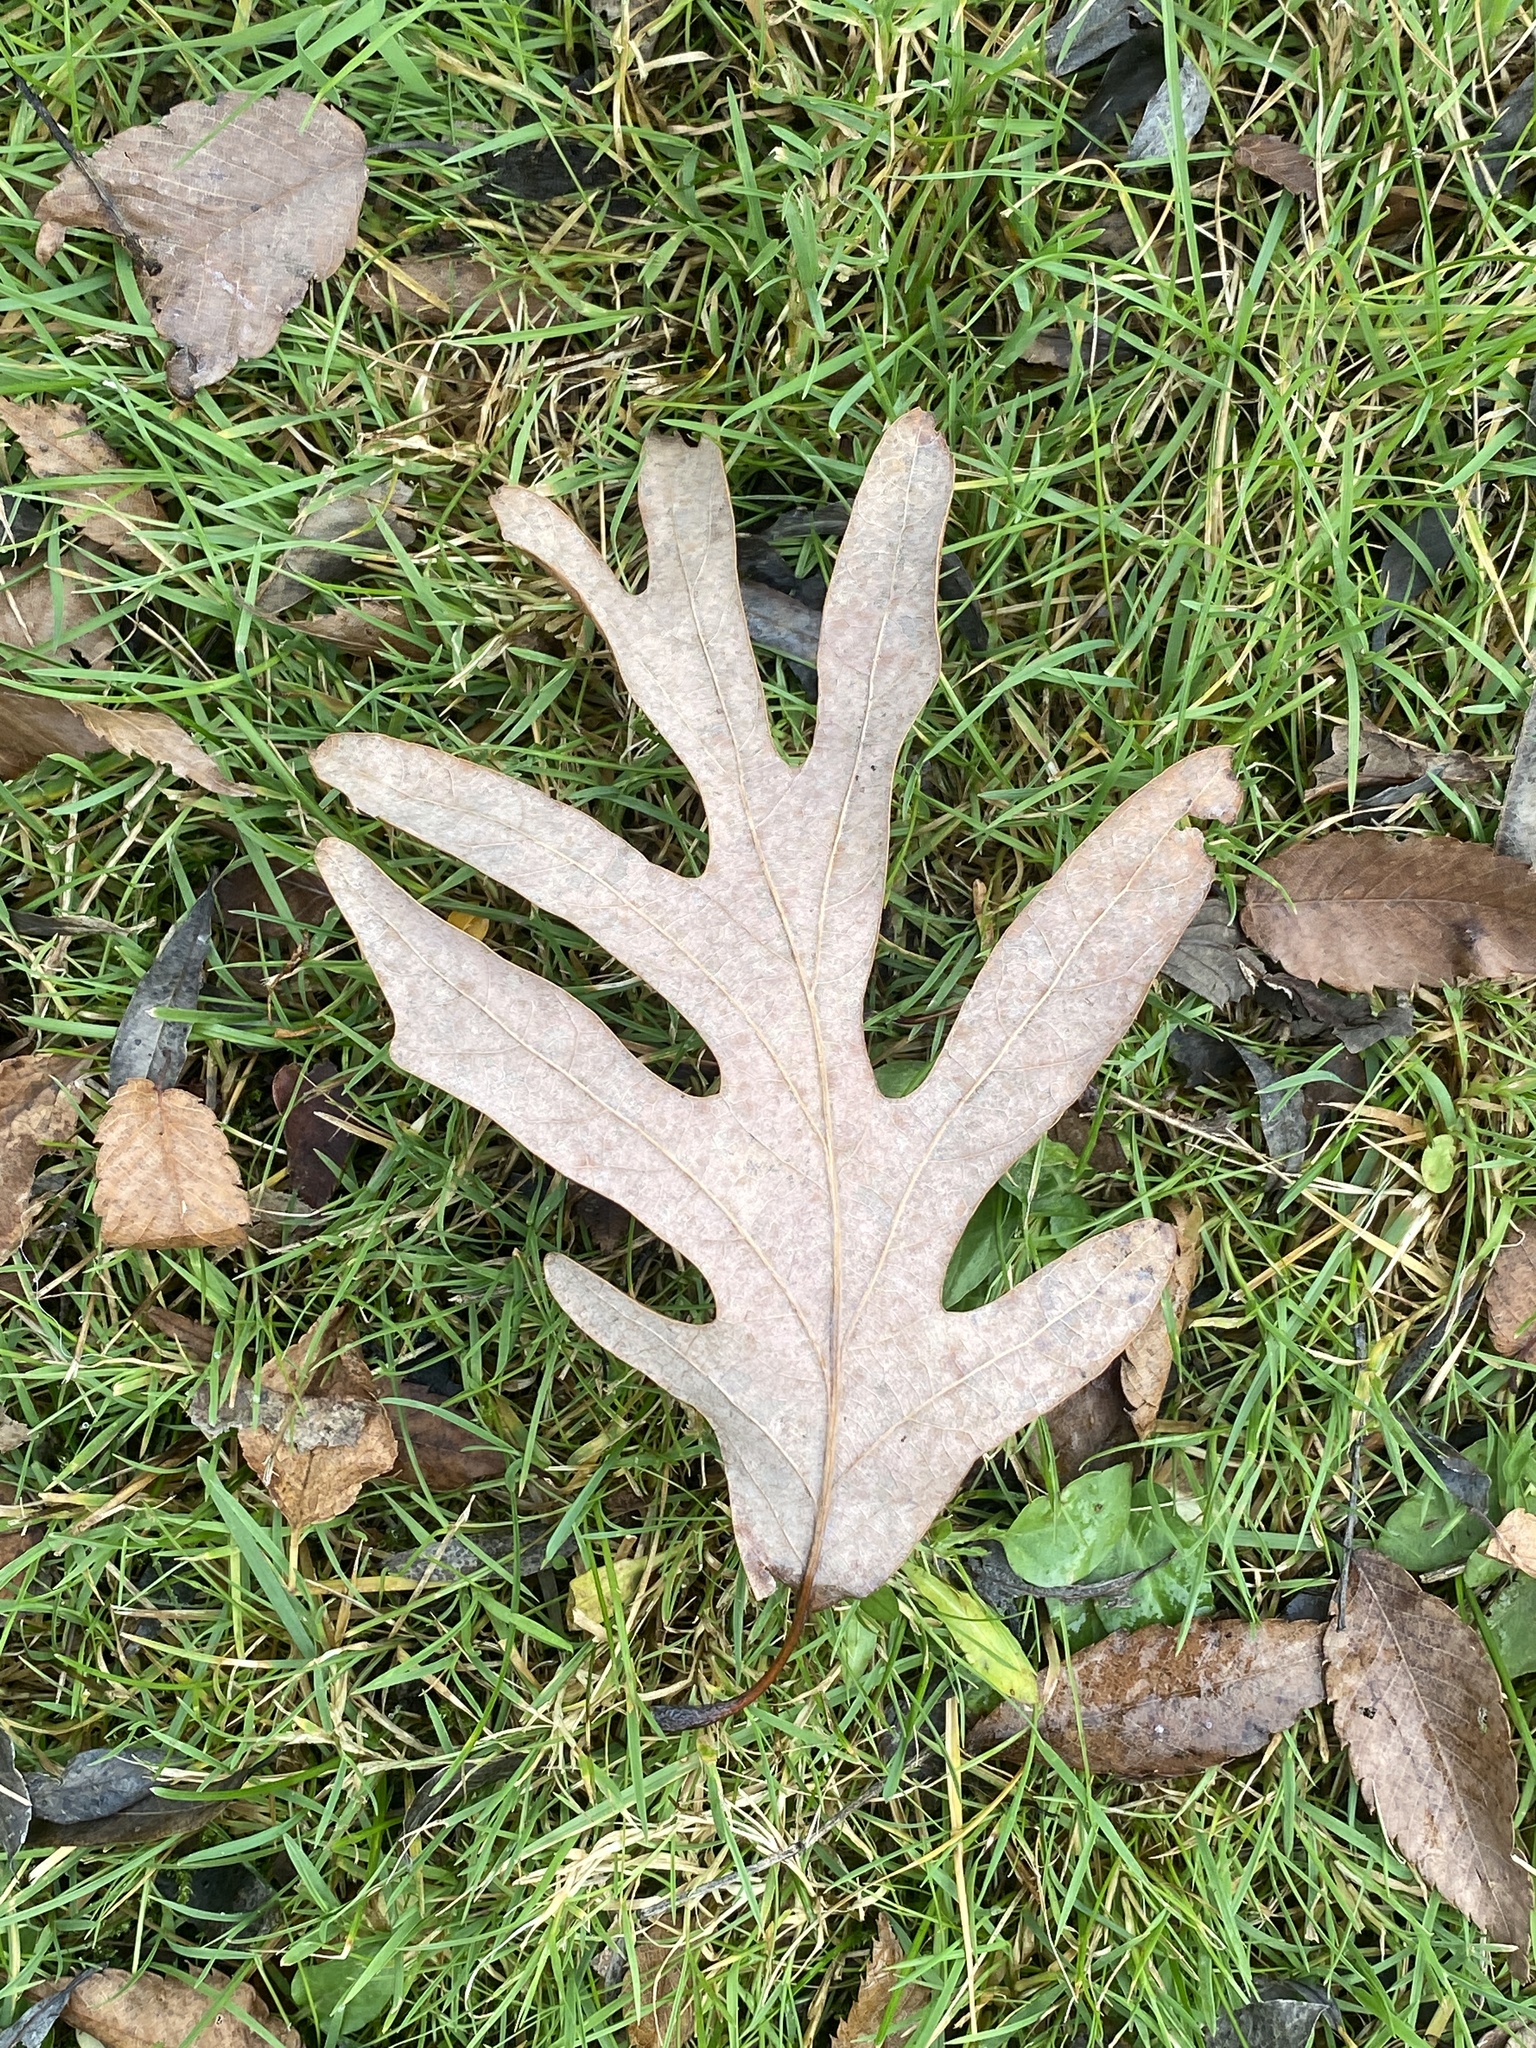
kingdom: Plantae
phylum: Tracheophyta
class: Magnoliopsida
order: Fagales
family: Fagaceae
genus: Quercus
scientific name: Quercus alba
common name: White oak
